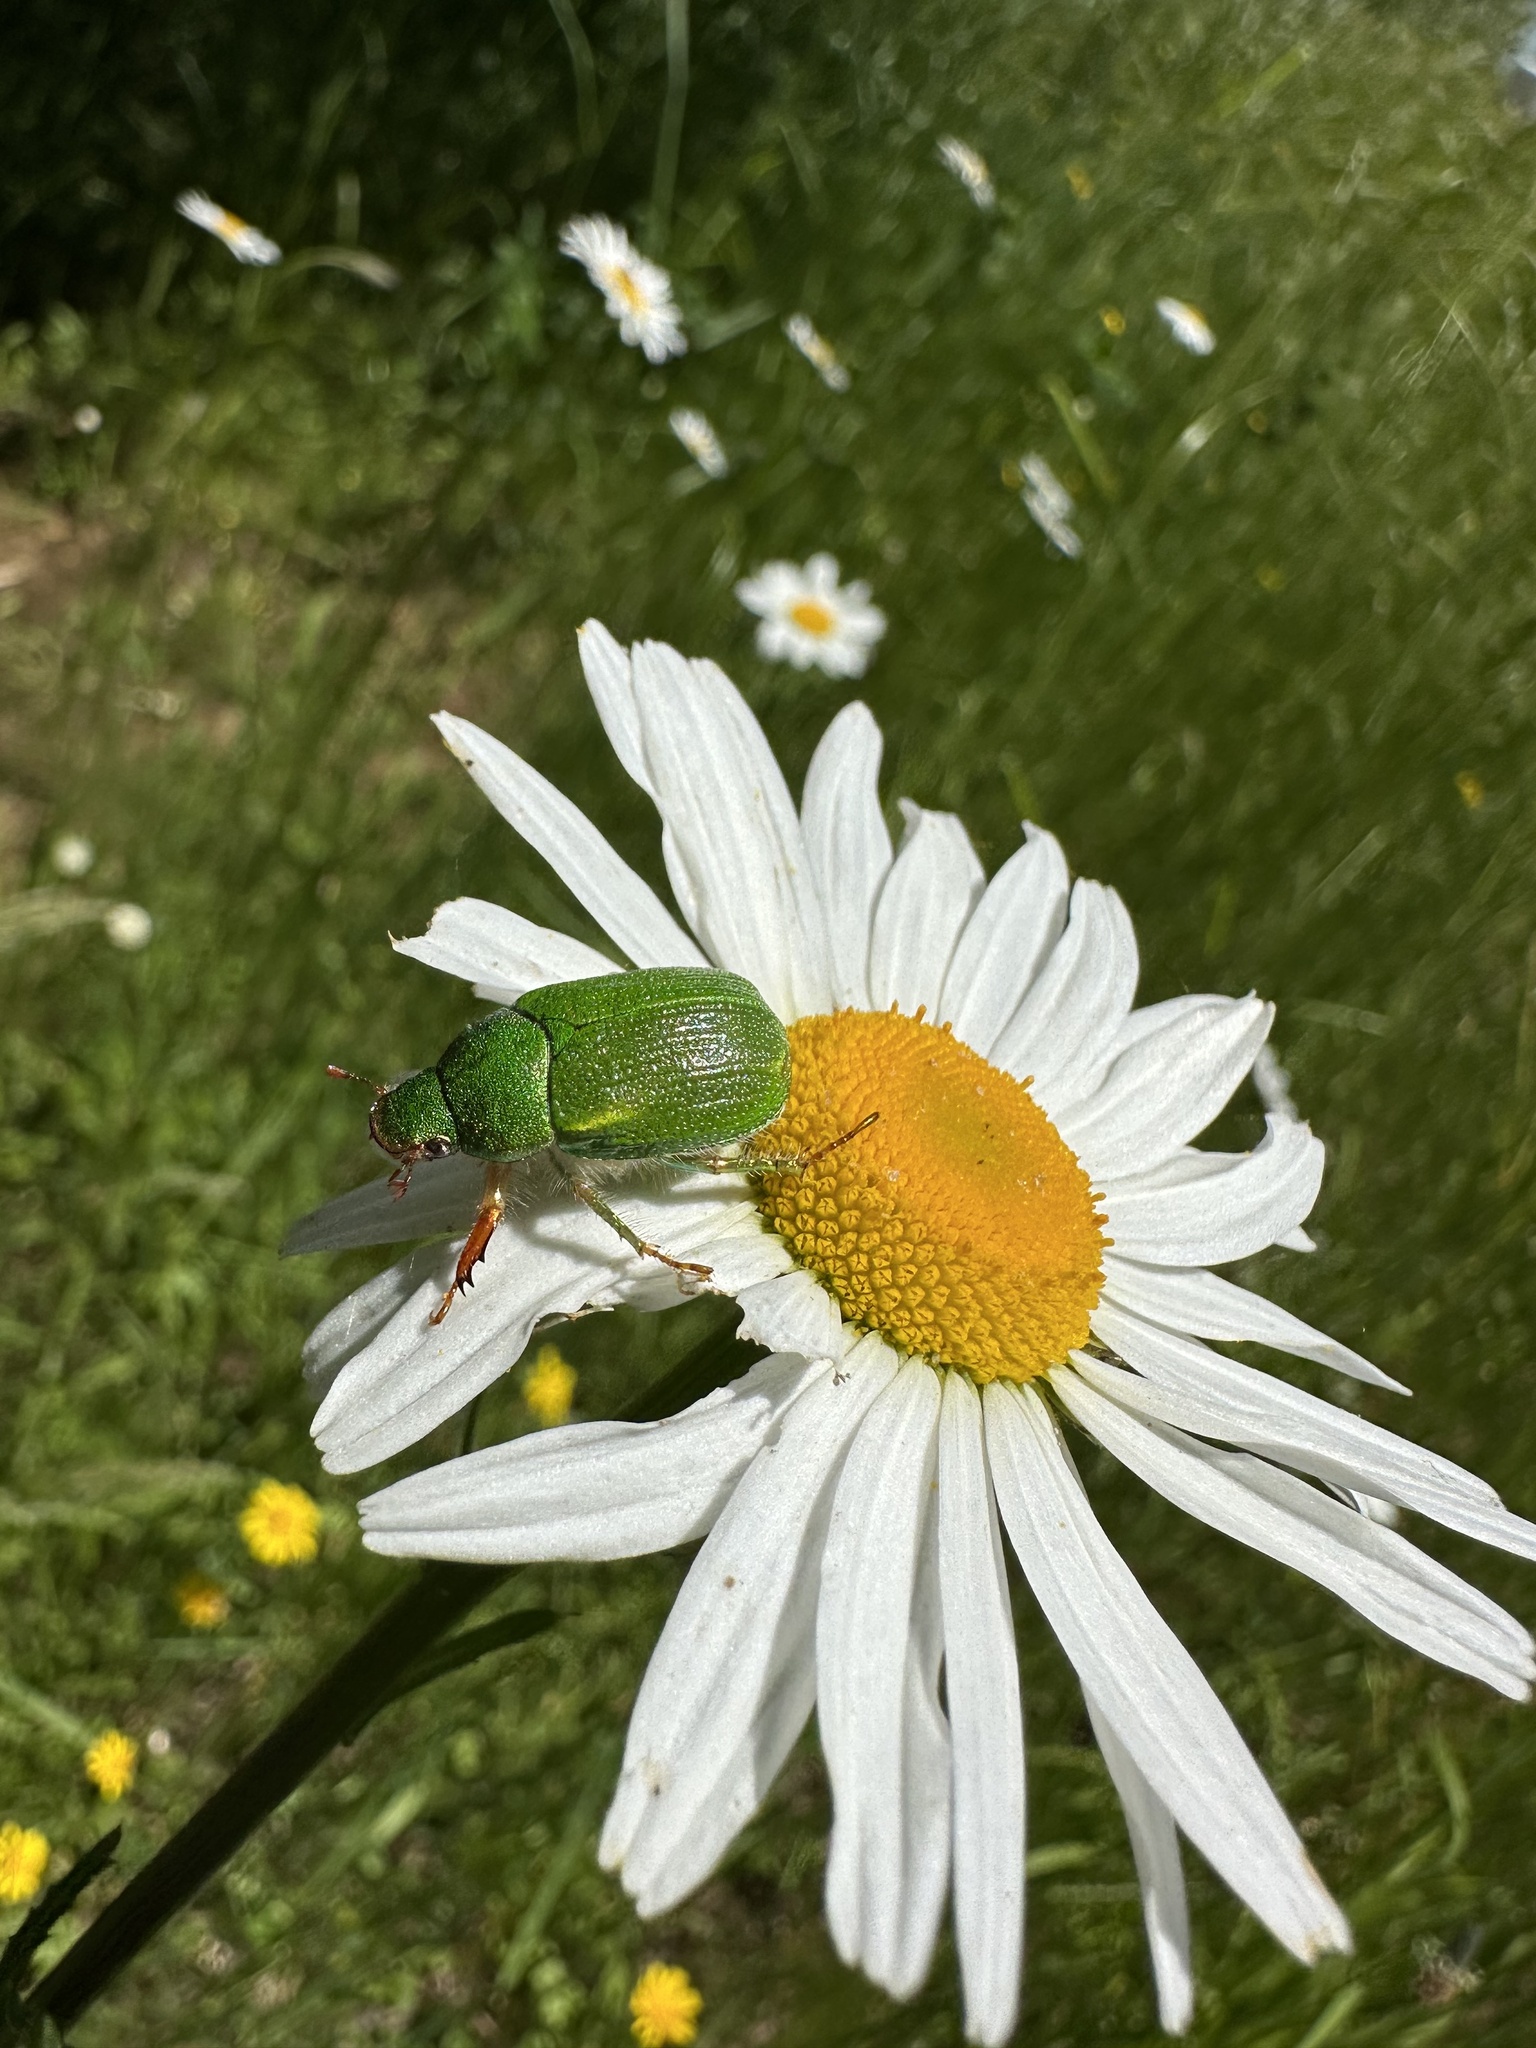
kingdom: Animalia
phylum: Arthropoda
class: Insecta
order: Coleoptera
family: Scarabaeidae
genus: Hylamorpha
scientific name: Hylamorpha elegans
